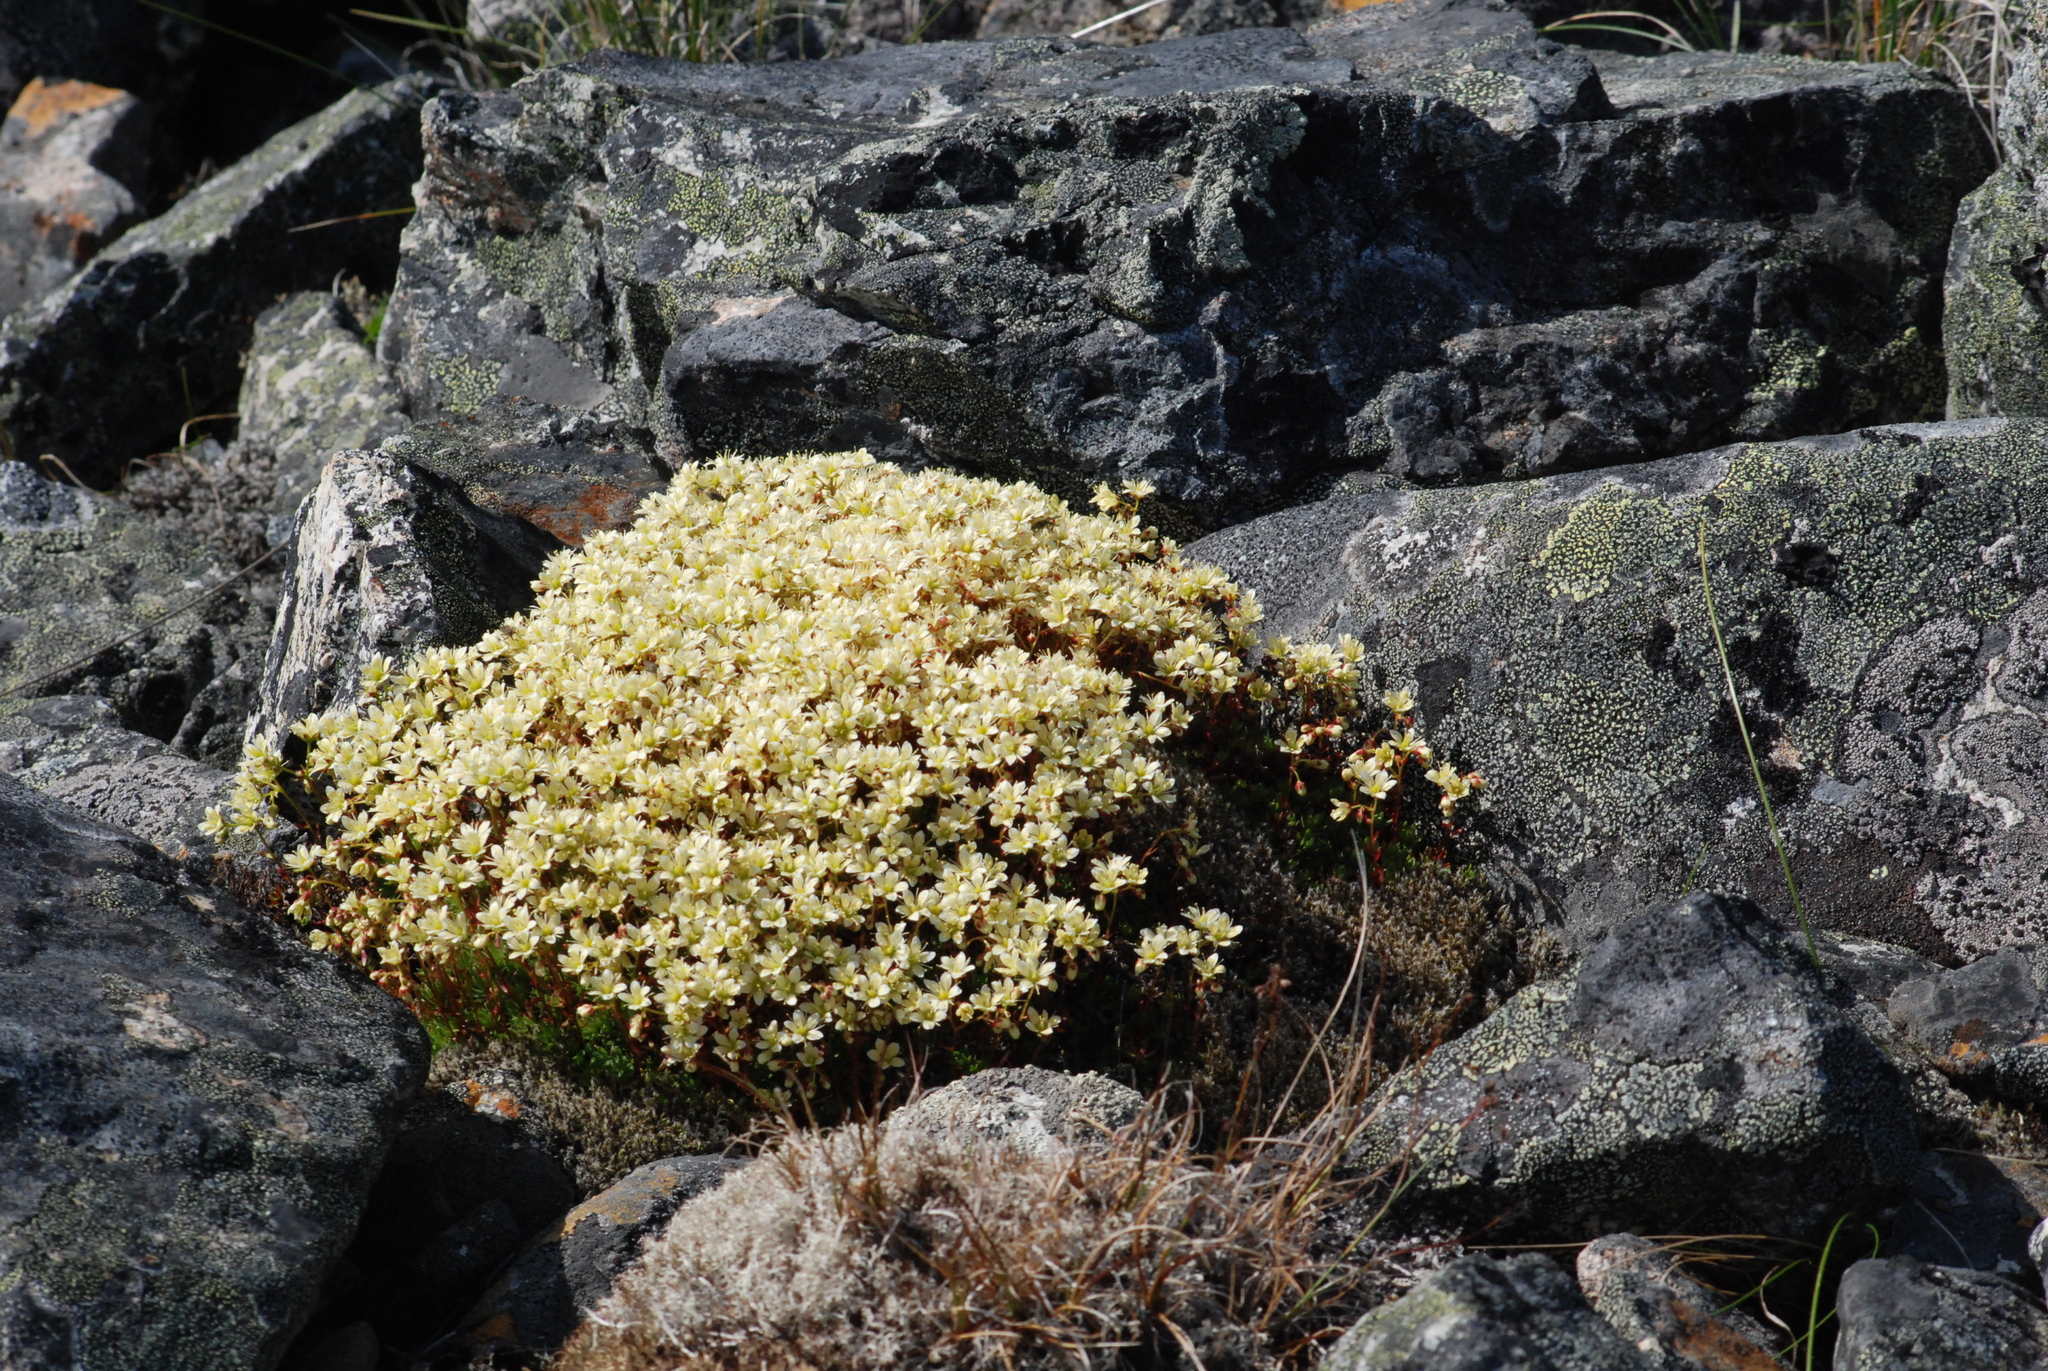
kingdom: Plantae
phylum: Tracheophyta
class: Magnoliopsida
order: Saxifragales
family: Saxifragaceae
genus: Saxifraga
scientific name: Saxifraga bronchialis
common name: Matted saxifrage
